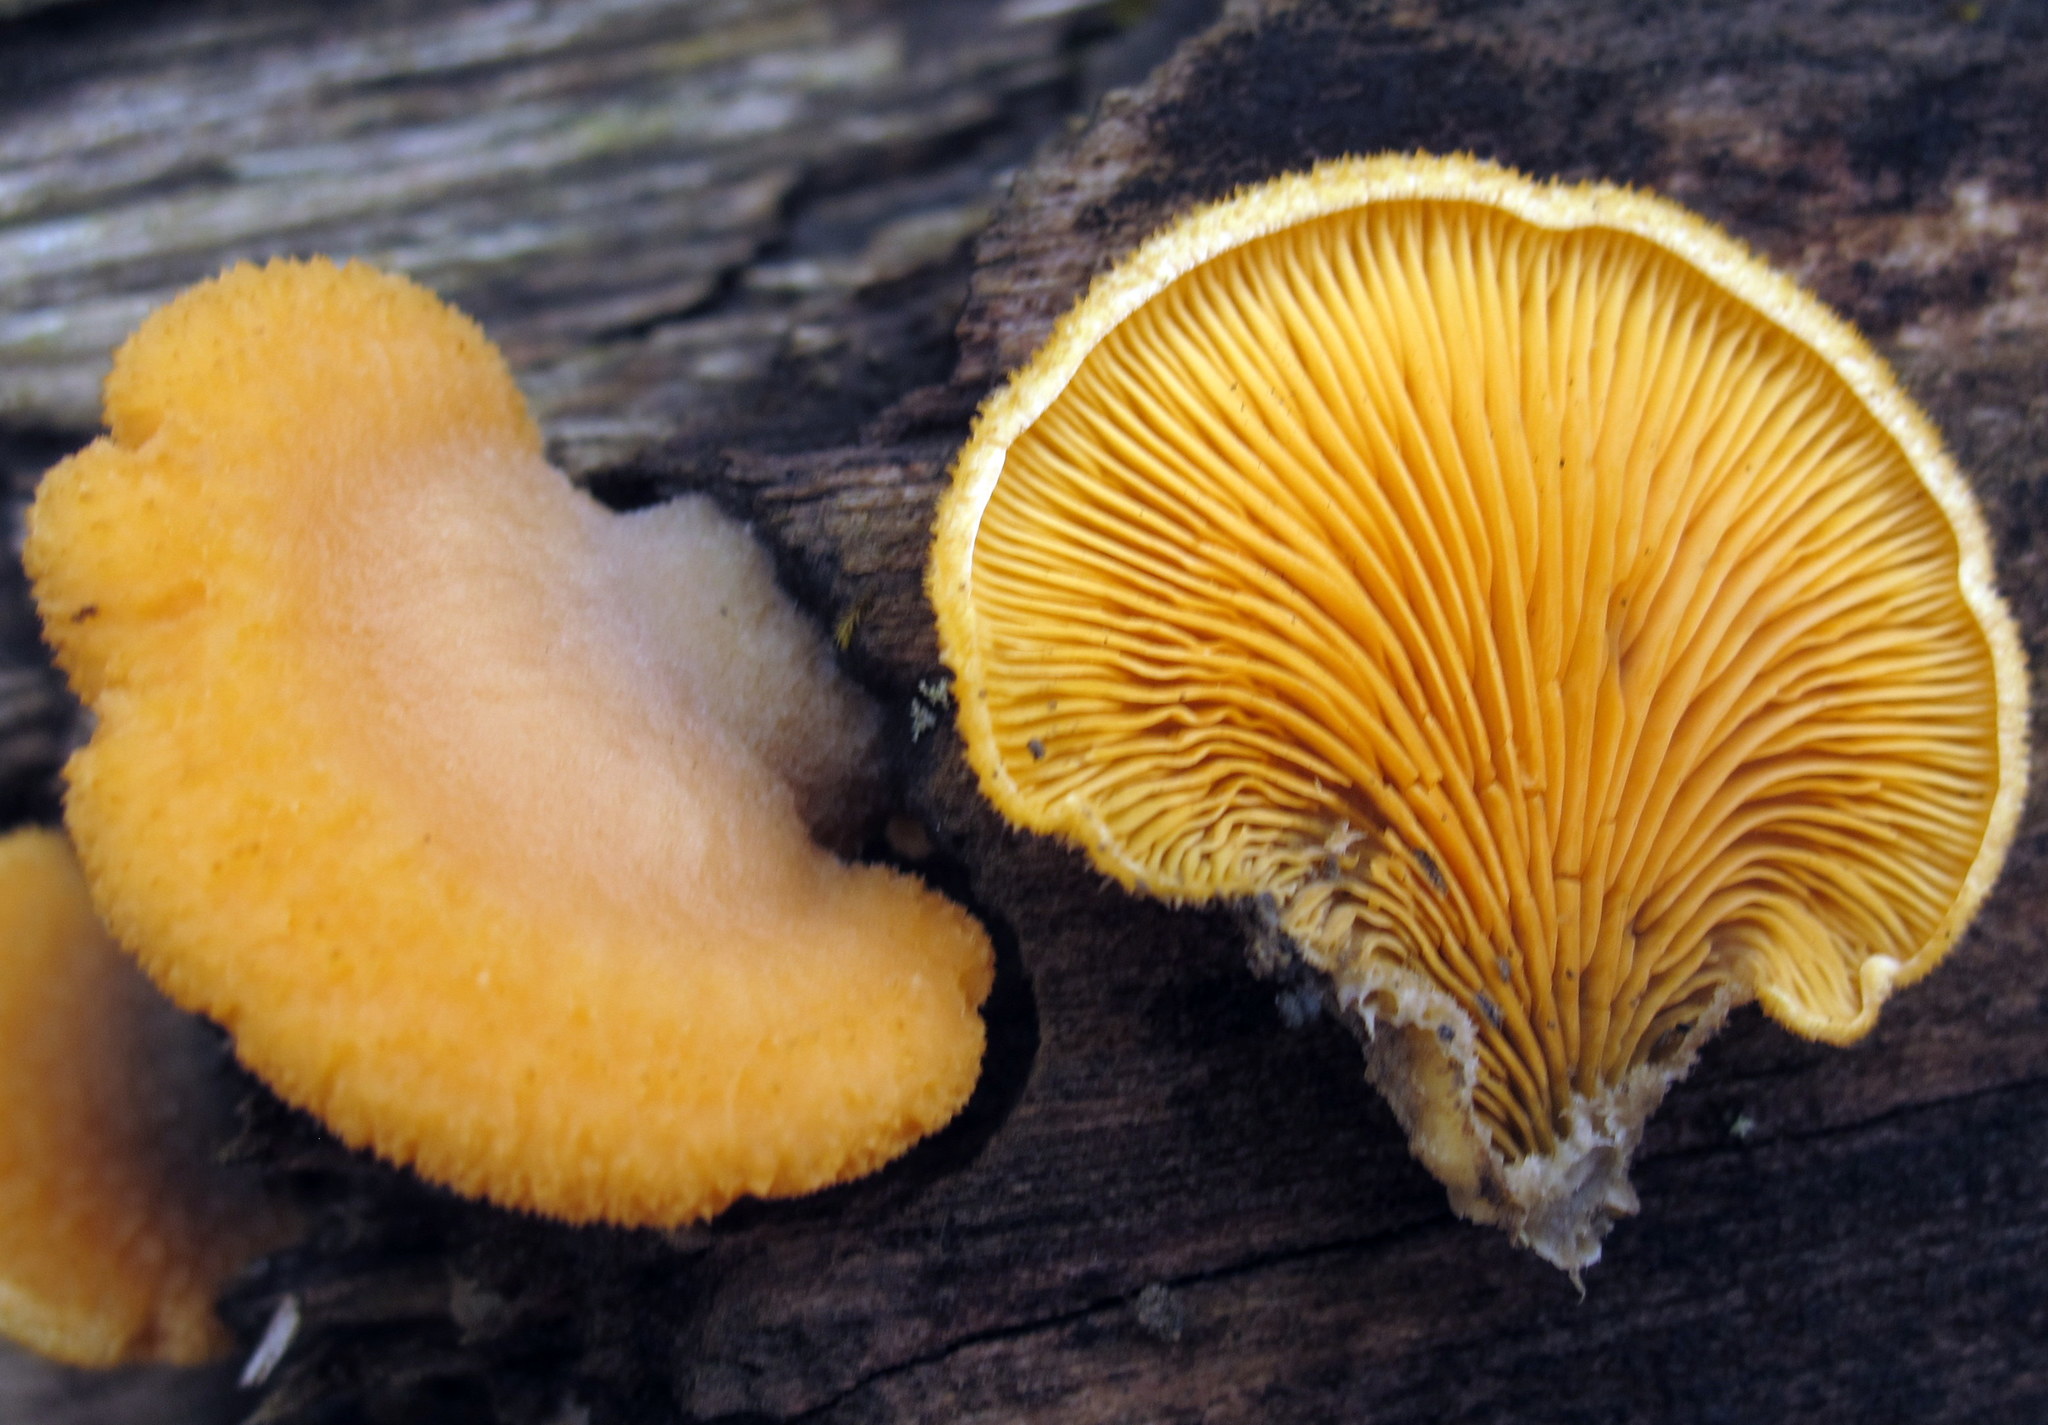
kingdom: Fungi
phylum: Basidiomycota
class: Agaricomycetes
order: Agaricales
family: Phyllotopsidaceae
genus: Phyllotopsis
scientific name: Phyllotopsis nidulans
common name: Orange mock oyster
